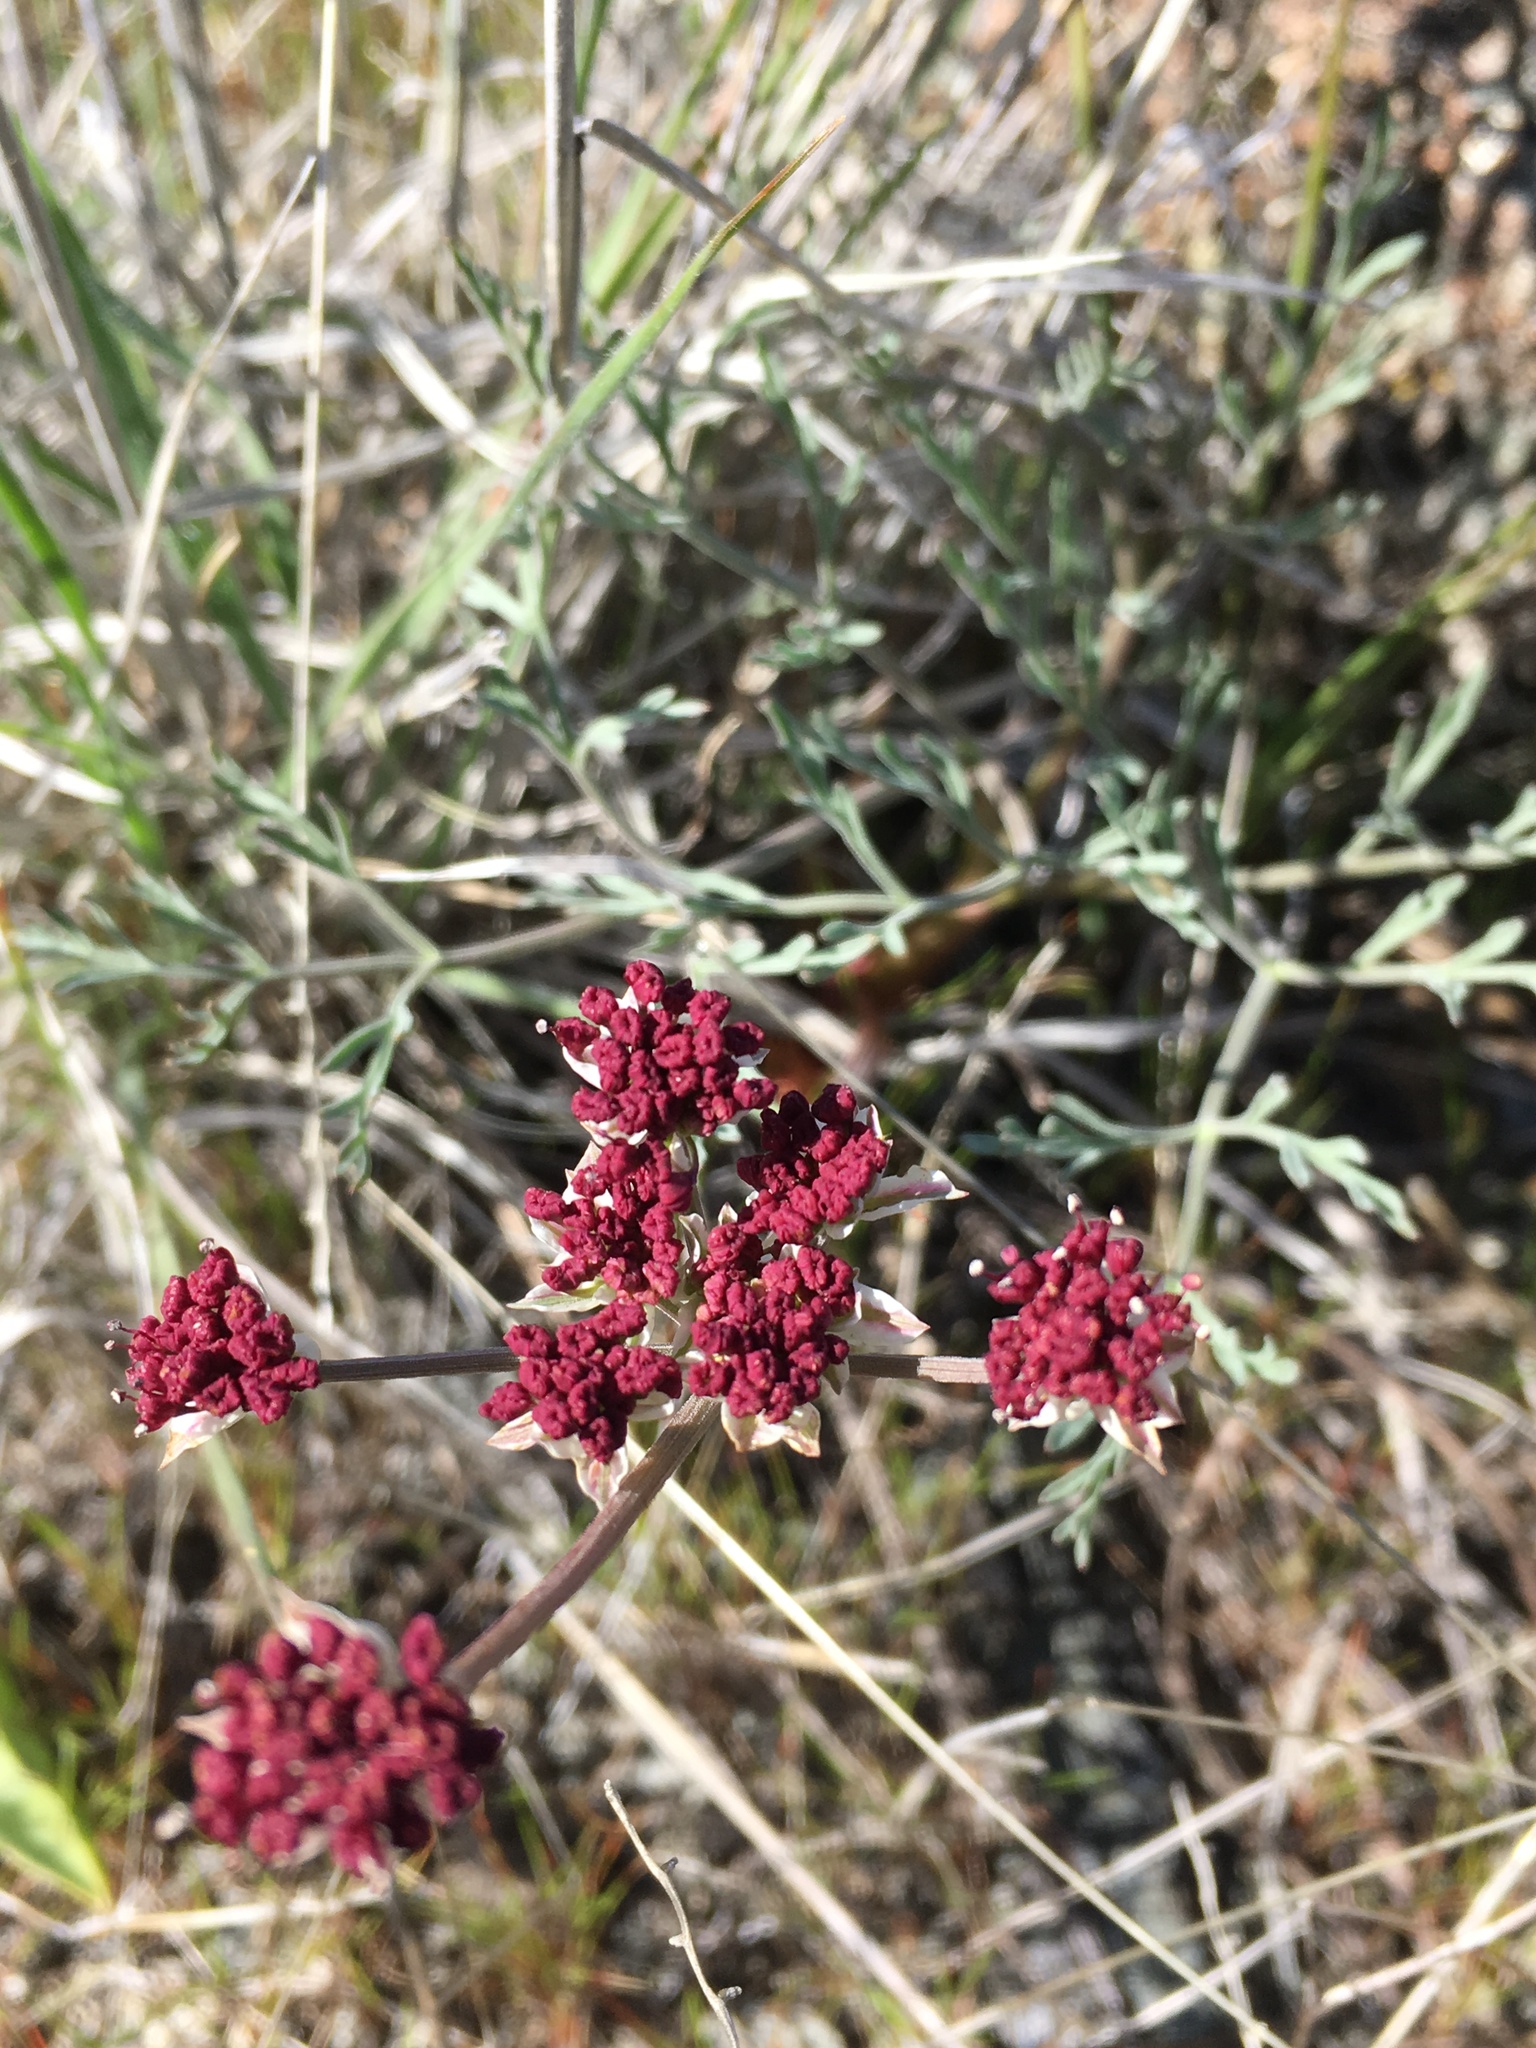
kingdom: Plantae
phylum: Tracheophyta
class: Magnoliopsida
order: Apiales
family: Apiaceae
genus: Lomatium
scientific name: Lomatium hooveri
